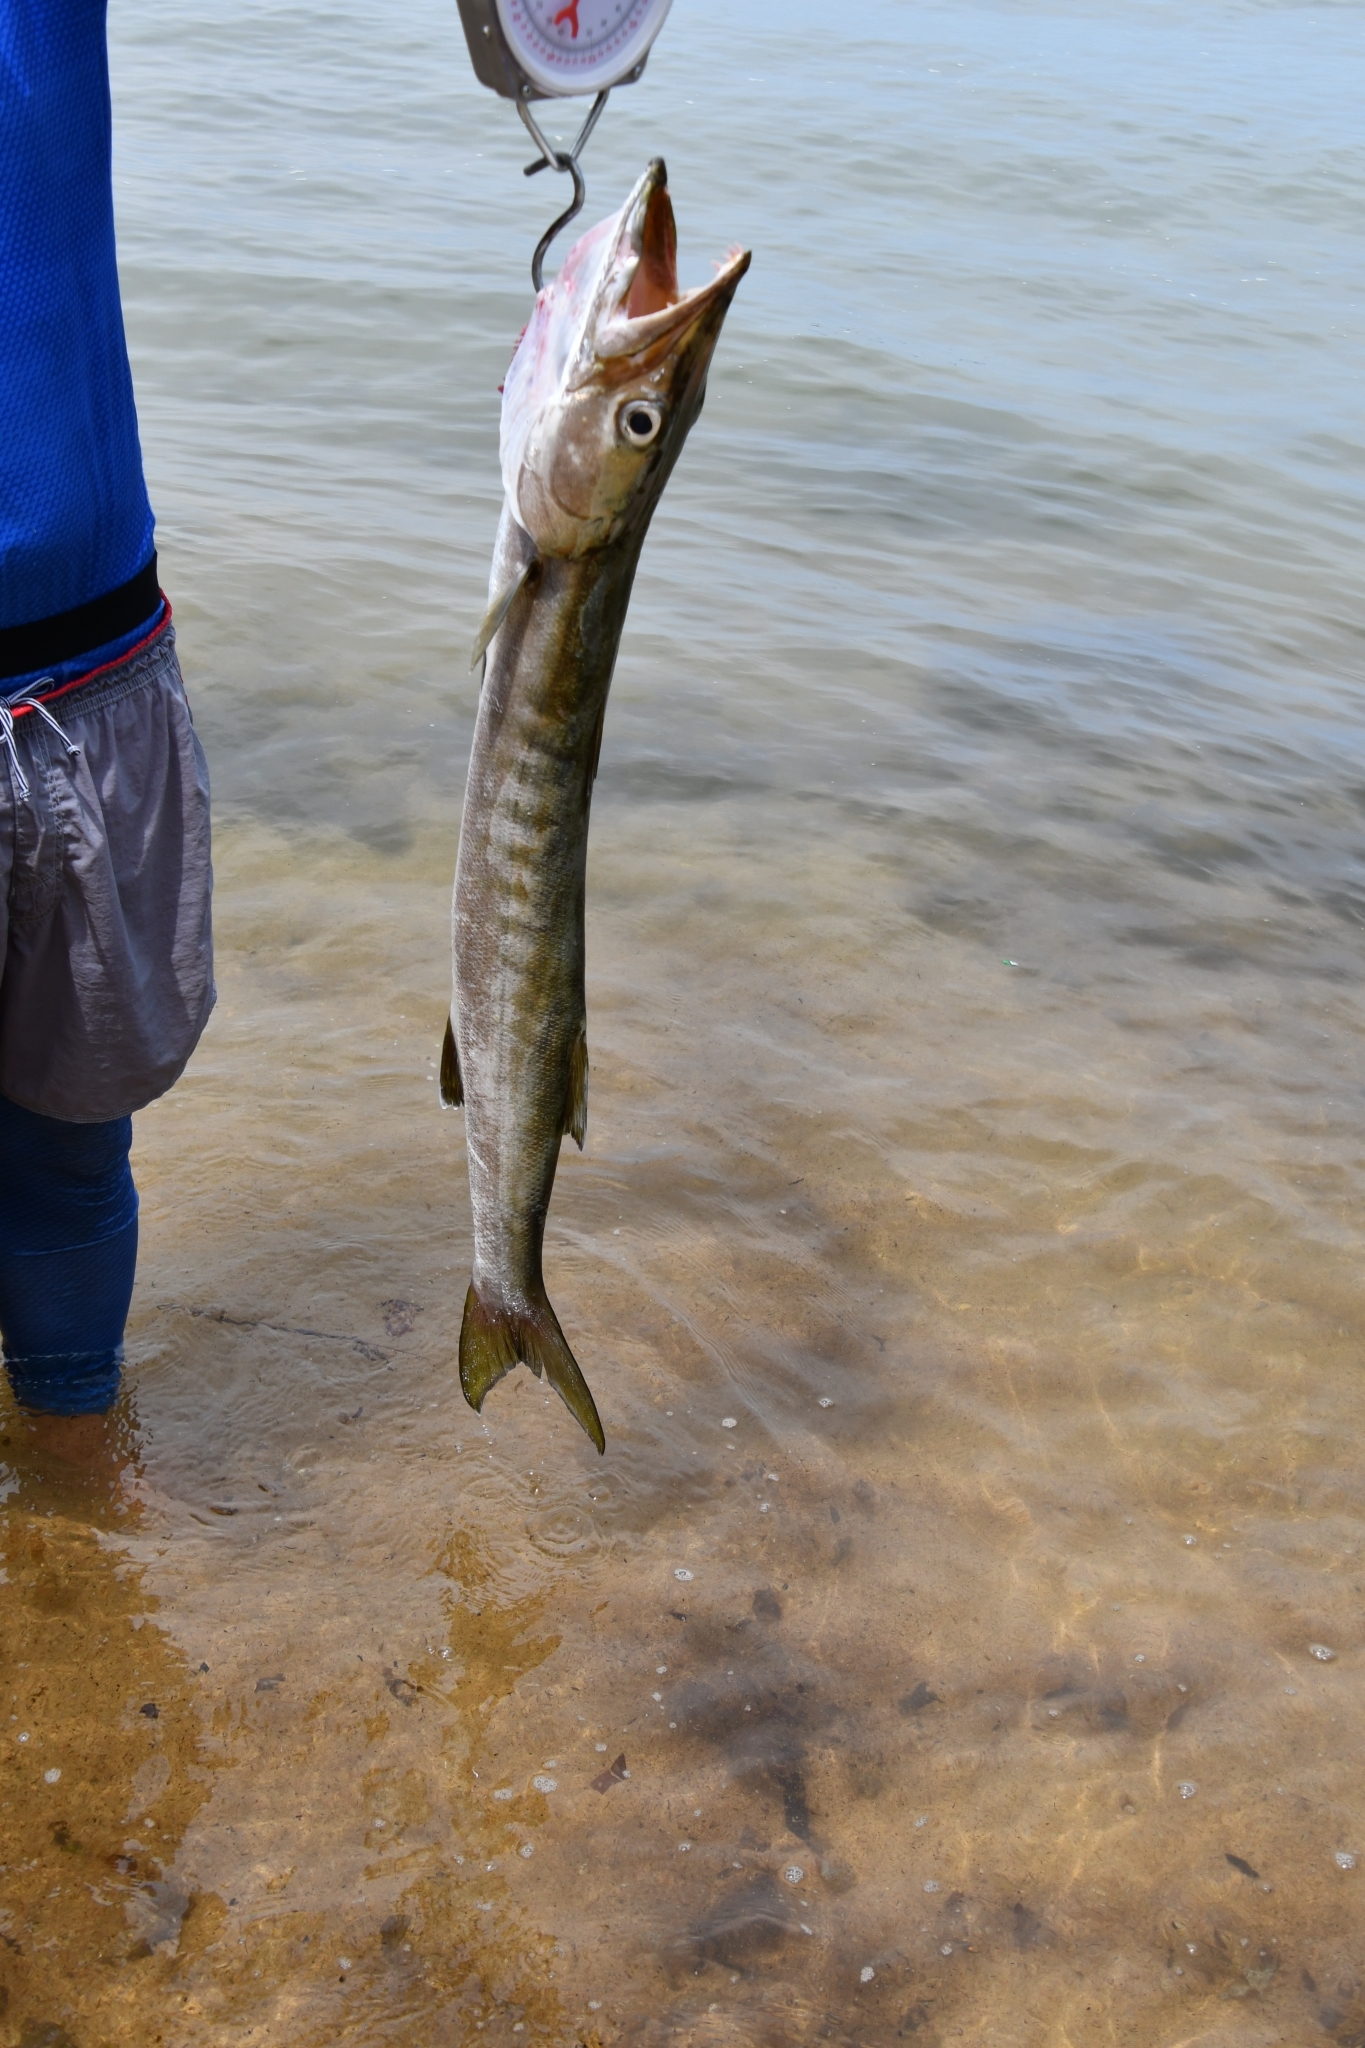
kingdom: Animalia
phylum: Chordata
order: Perciformes
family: Sphyraenidae
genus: Sphyraena
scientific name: Sphyraena jello
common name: Pickhandle barracuda
